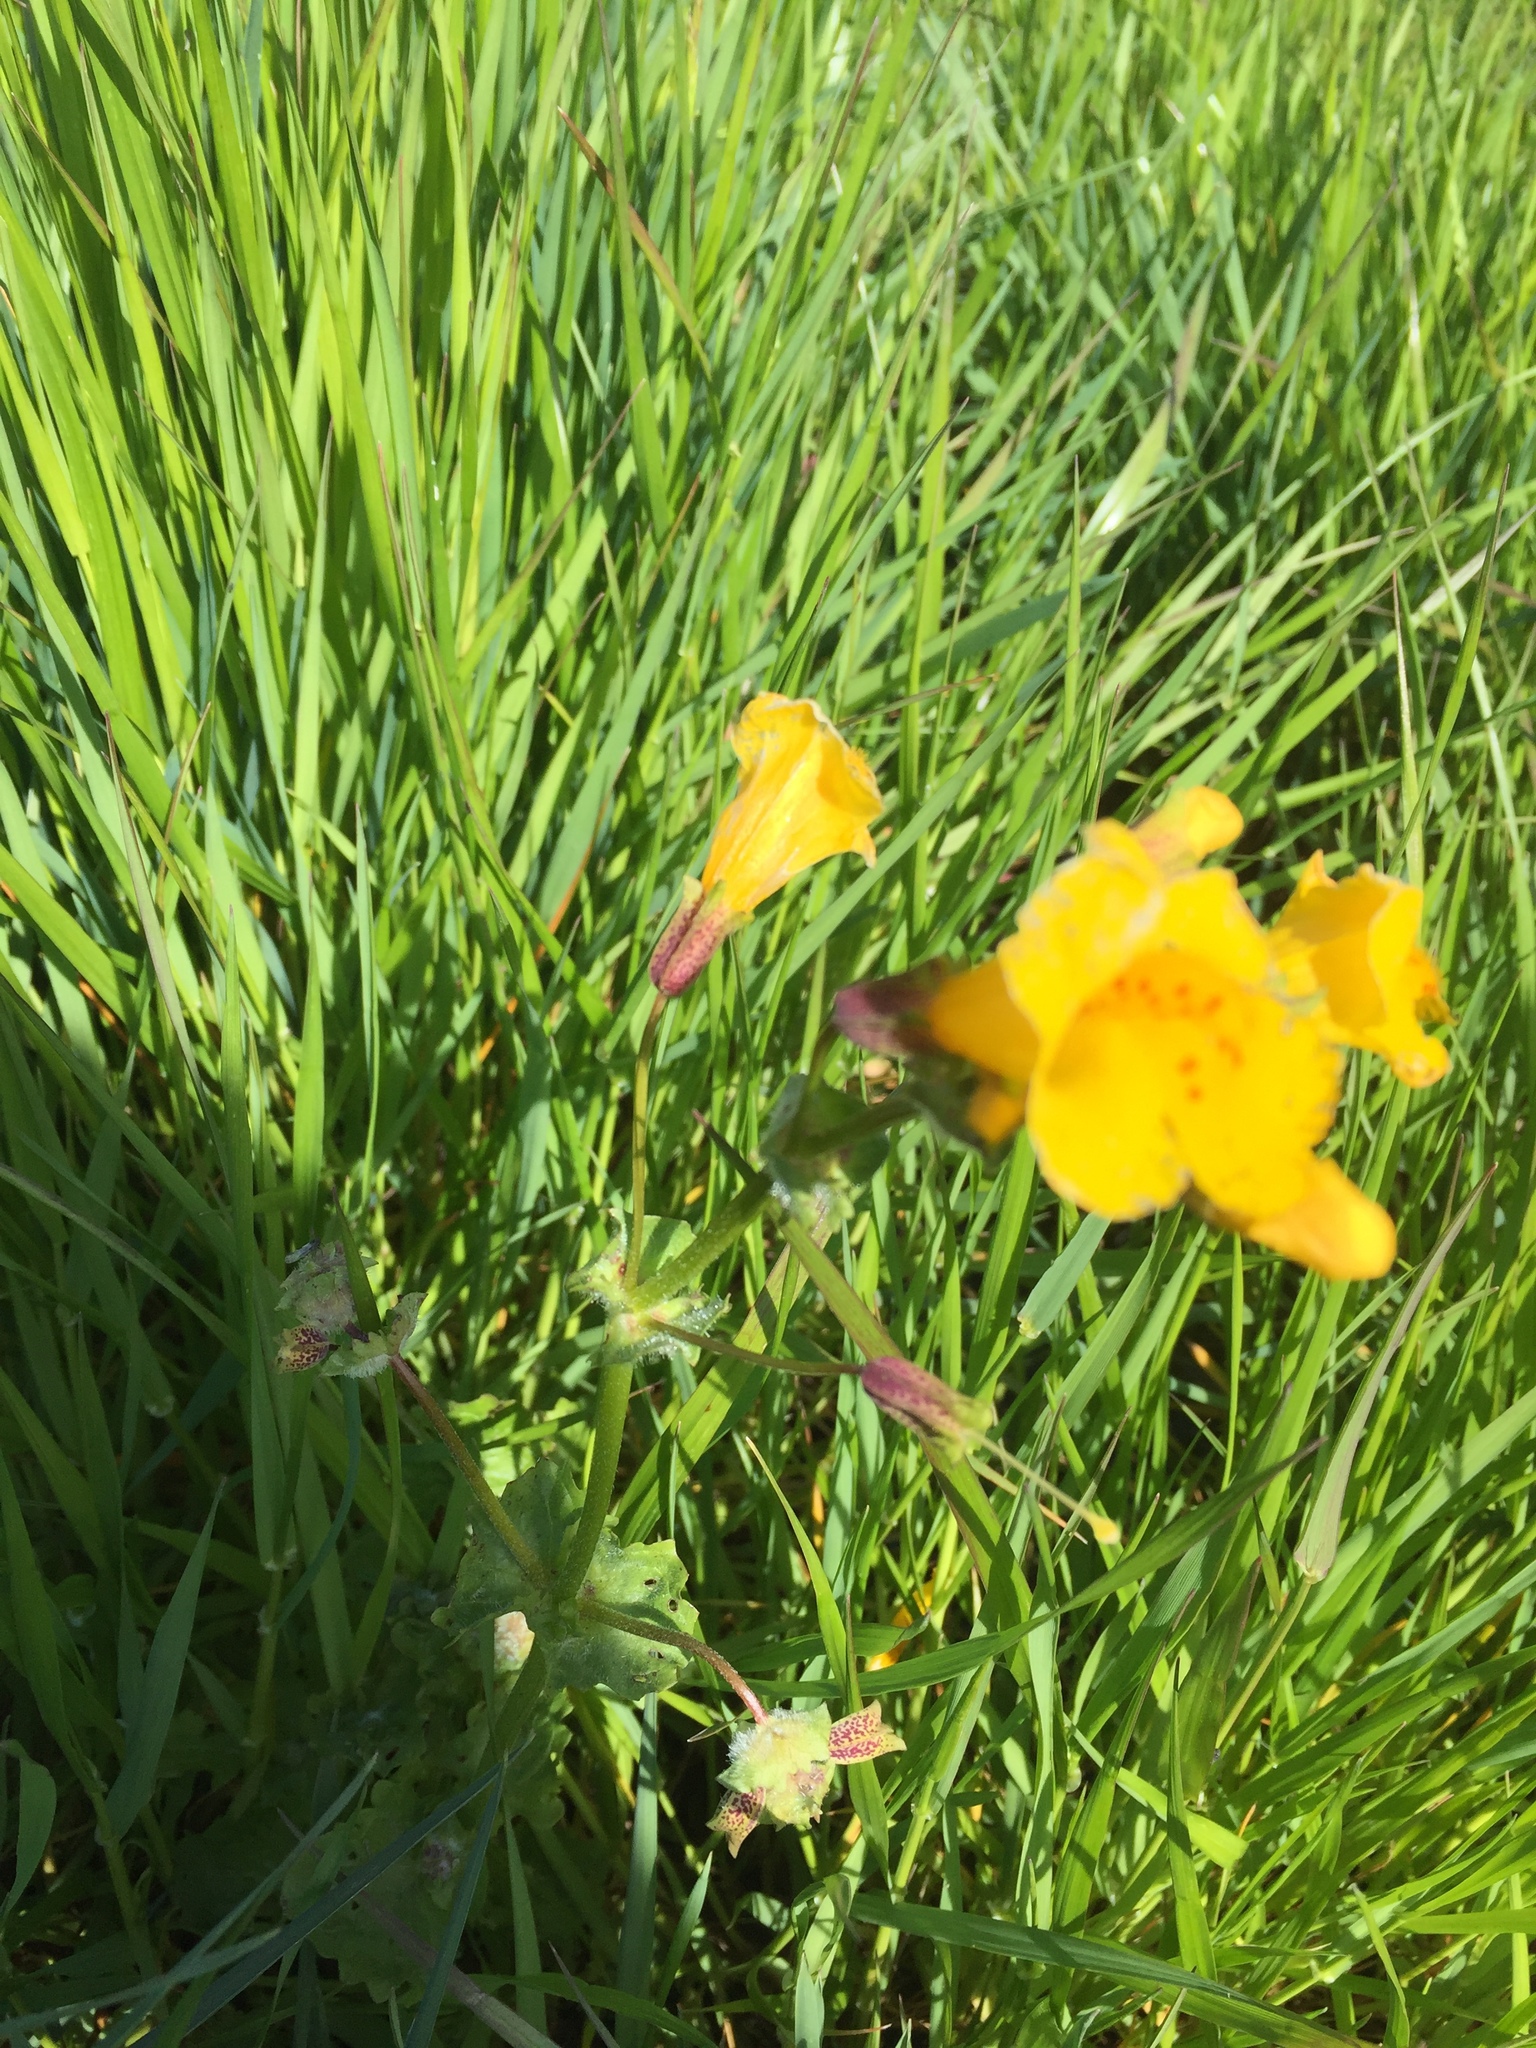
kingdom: Plantae
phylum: Tracheophyta
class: Magnoliopsida
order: Lamiales
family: Phrymaceae
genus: Erythranthe
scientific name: Erythranthe guttata
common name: Monkeyflower
